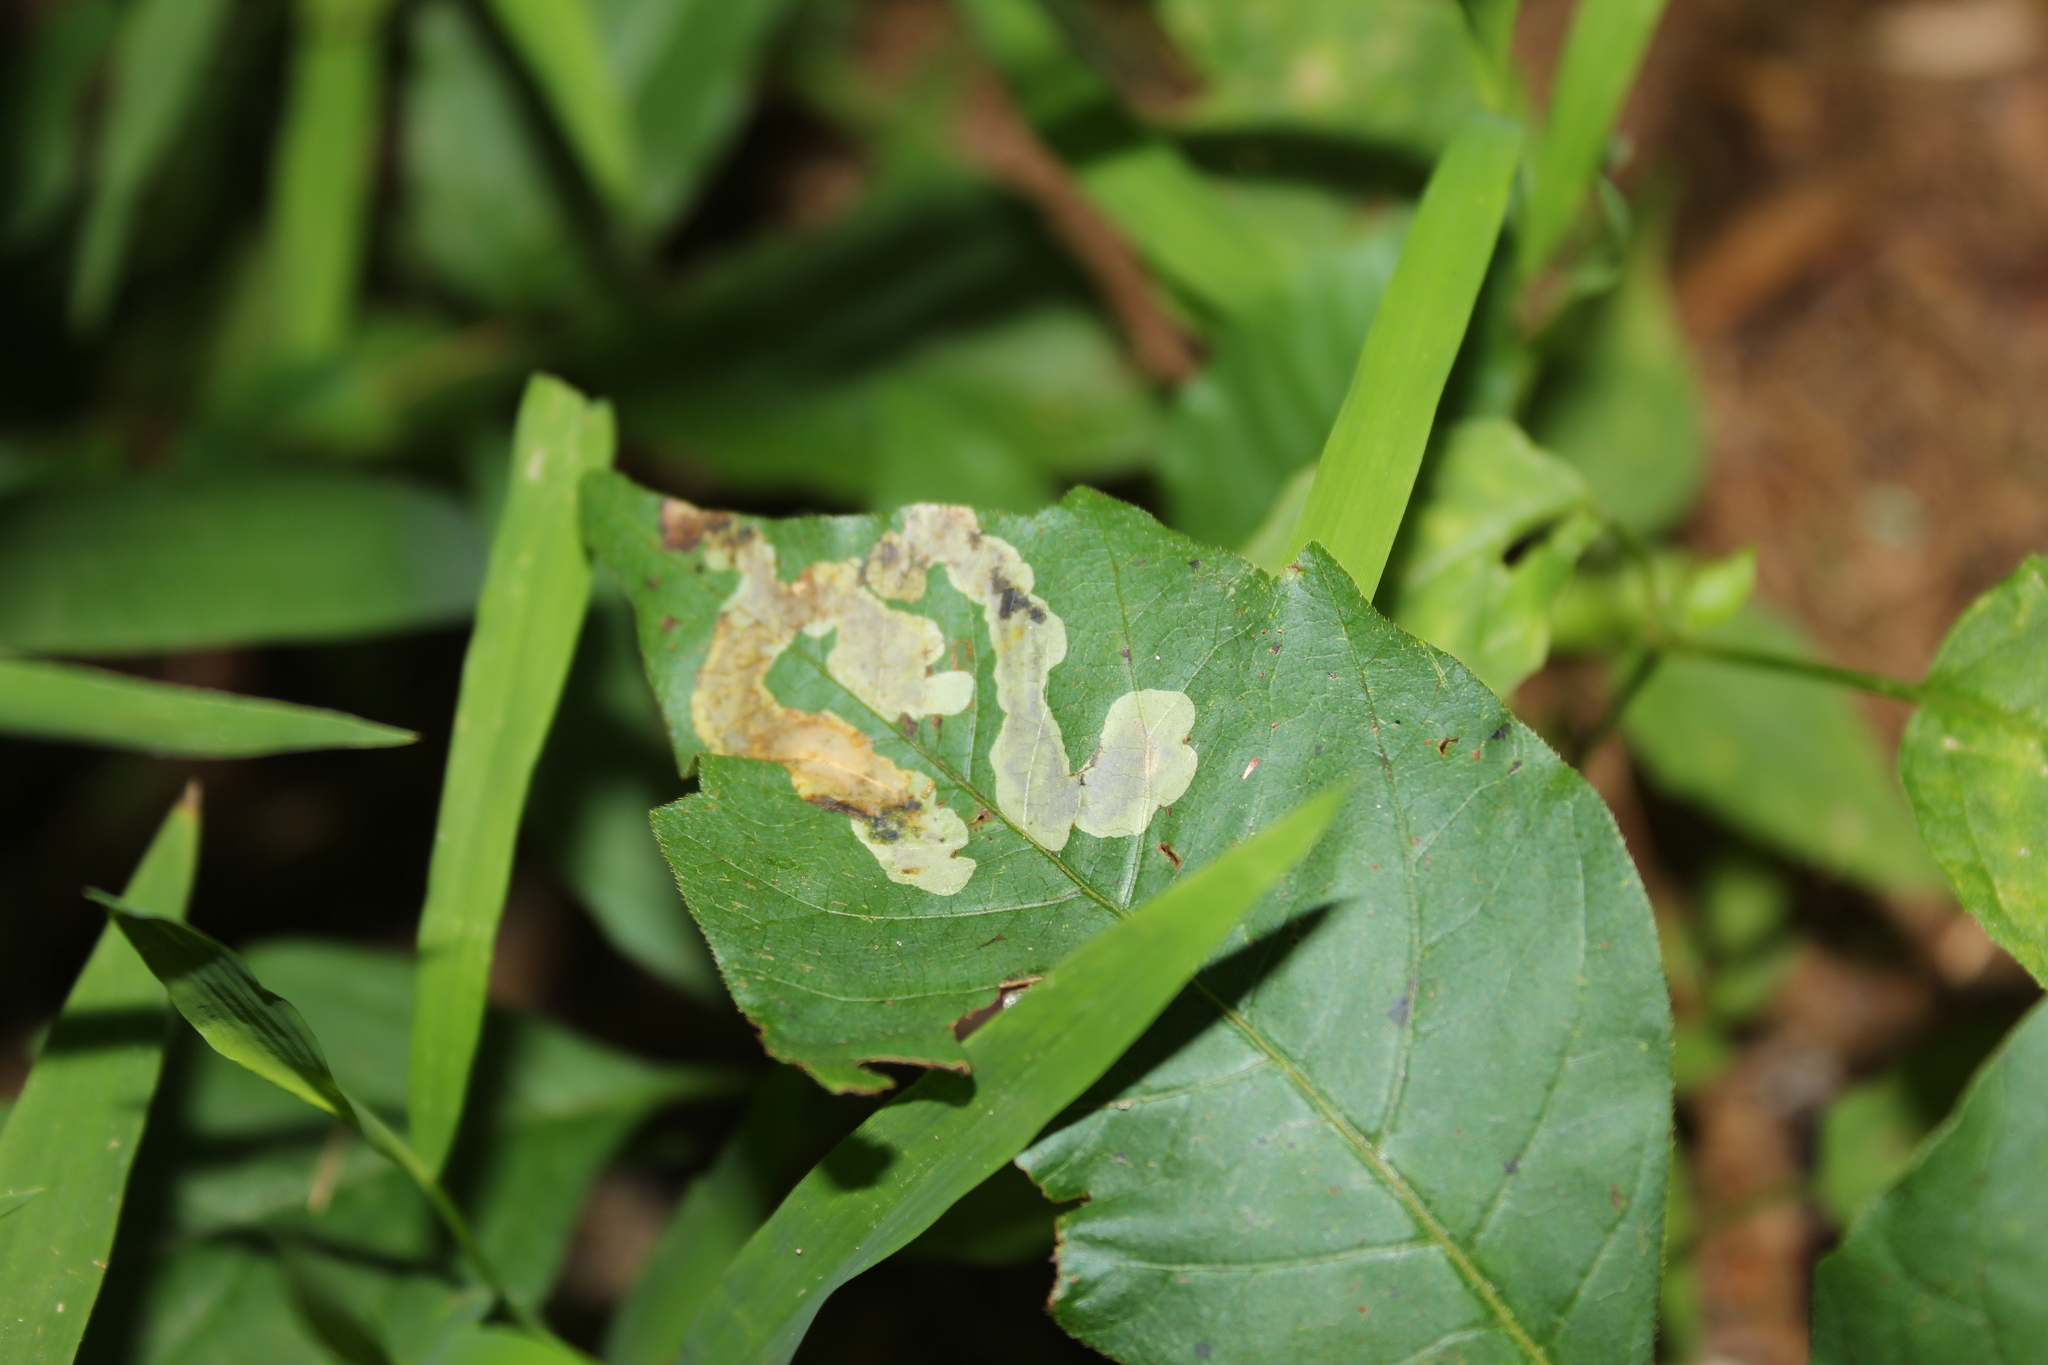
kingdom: Animalia
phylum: Arthropoda
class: Insecta
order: Lepidoptera
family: Gracillariidae
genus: Cameraria
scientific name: Cameraria guttifinitella
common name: Poison ivy leaf-miner moth
